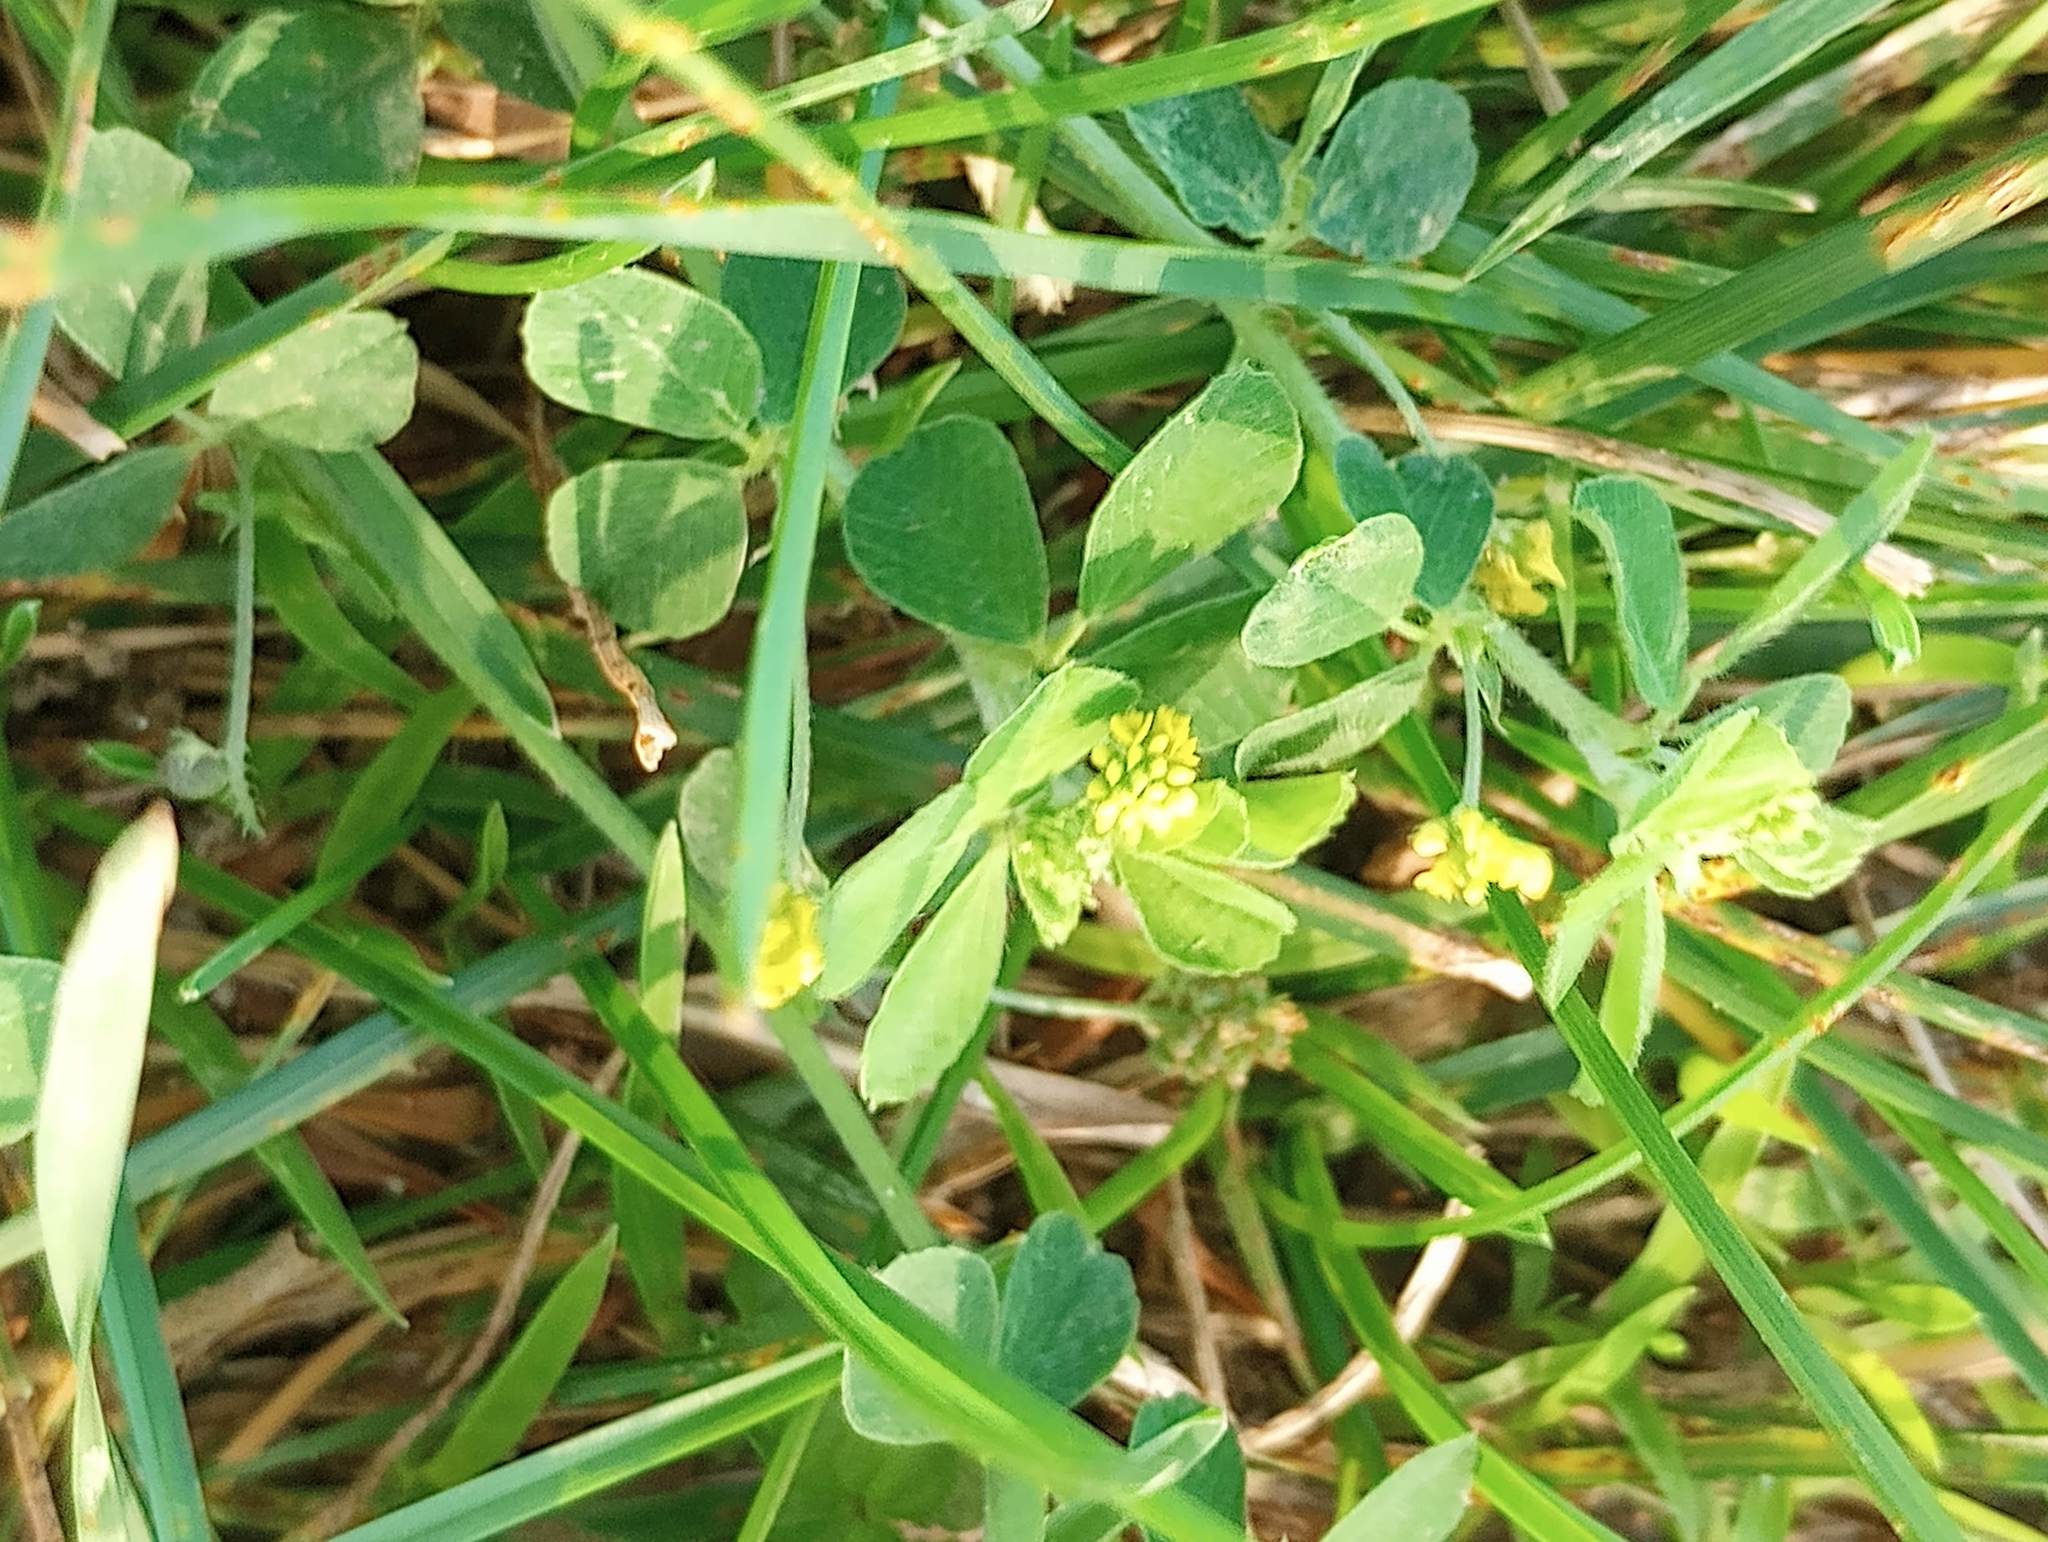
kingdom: Plantae
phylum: Tracheophyta
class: Magnoliopsida
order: Fabales
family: Fabaceae
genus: Medicago
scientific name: Medicago lupulina
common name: Black medick
